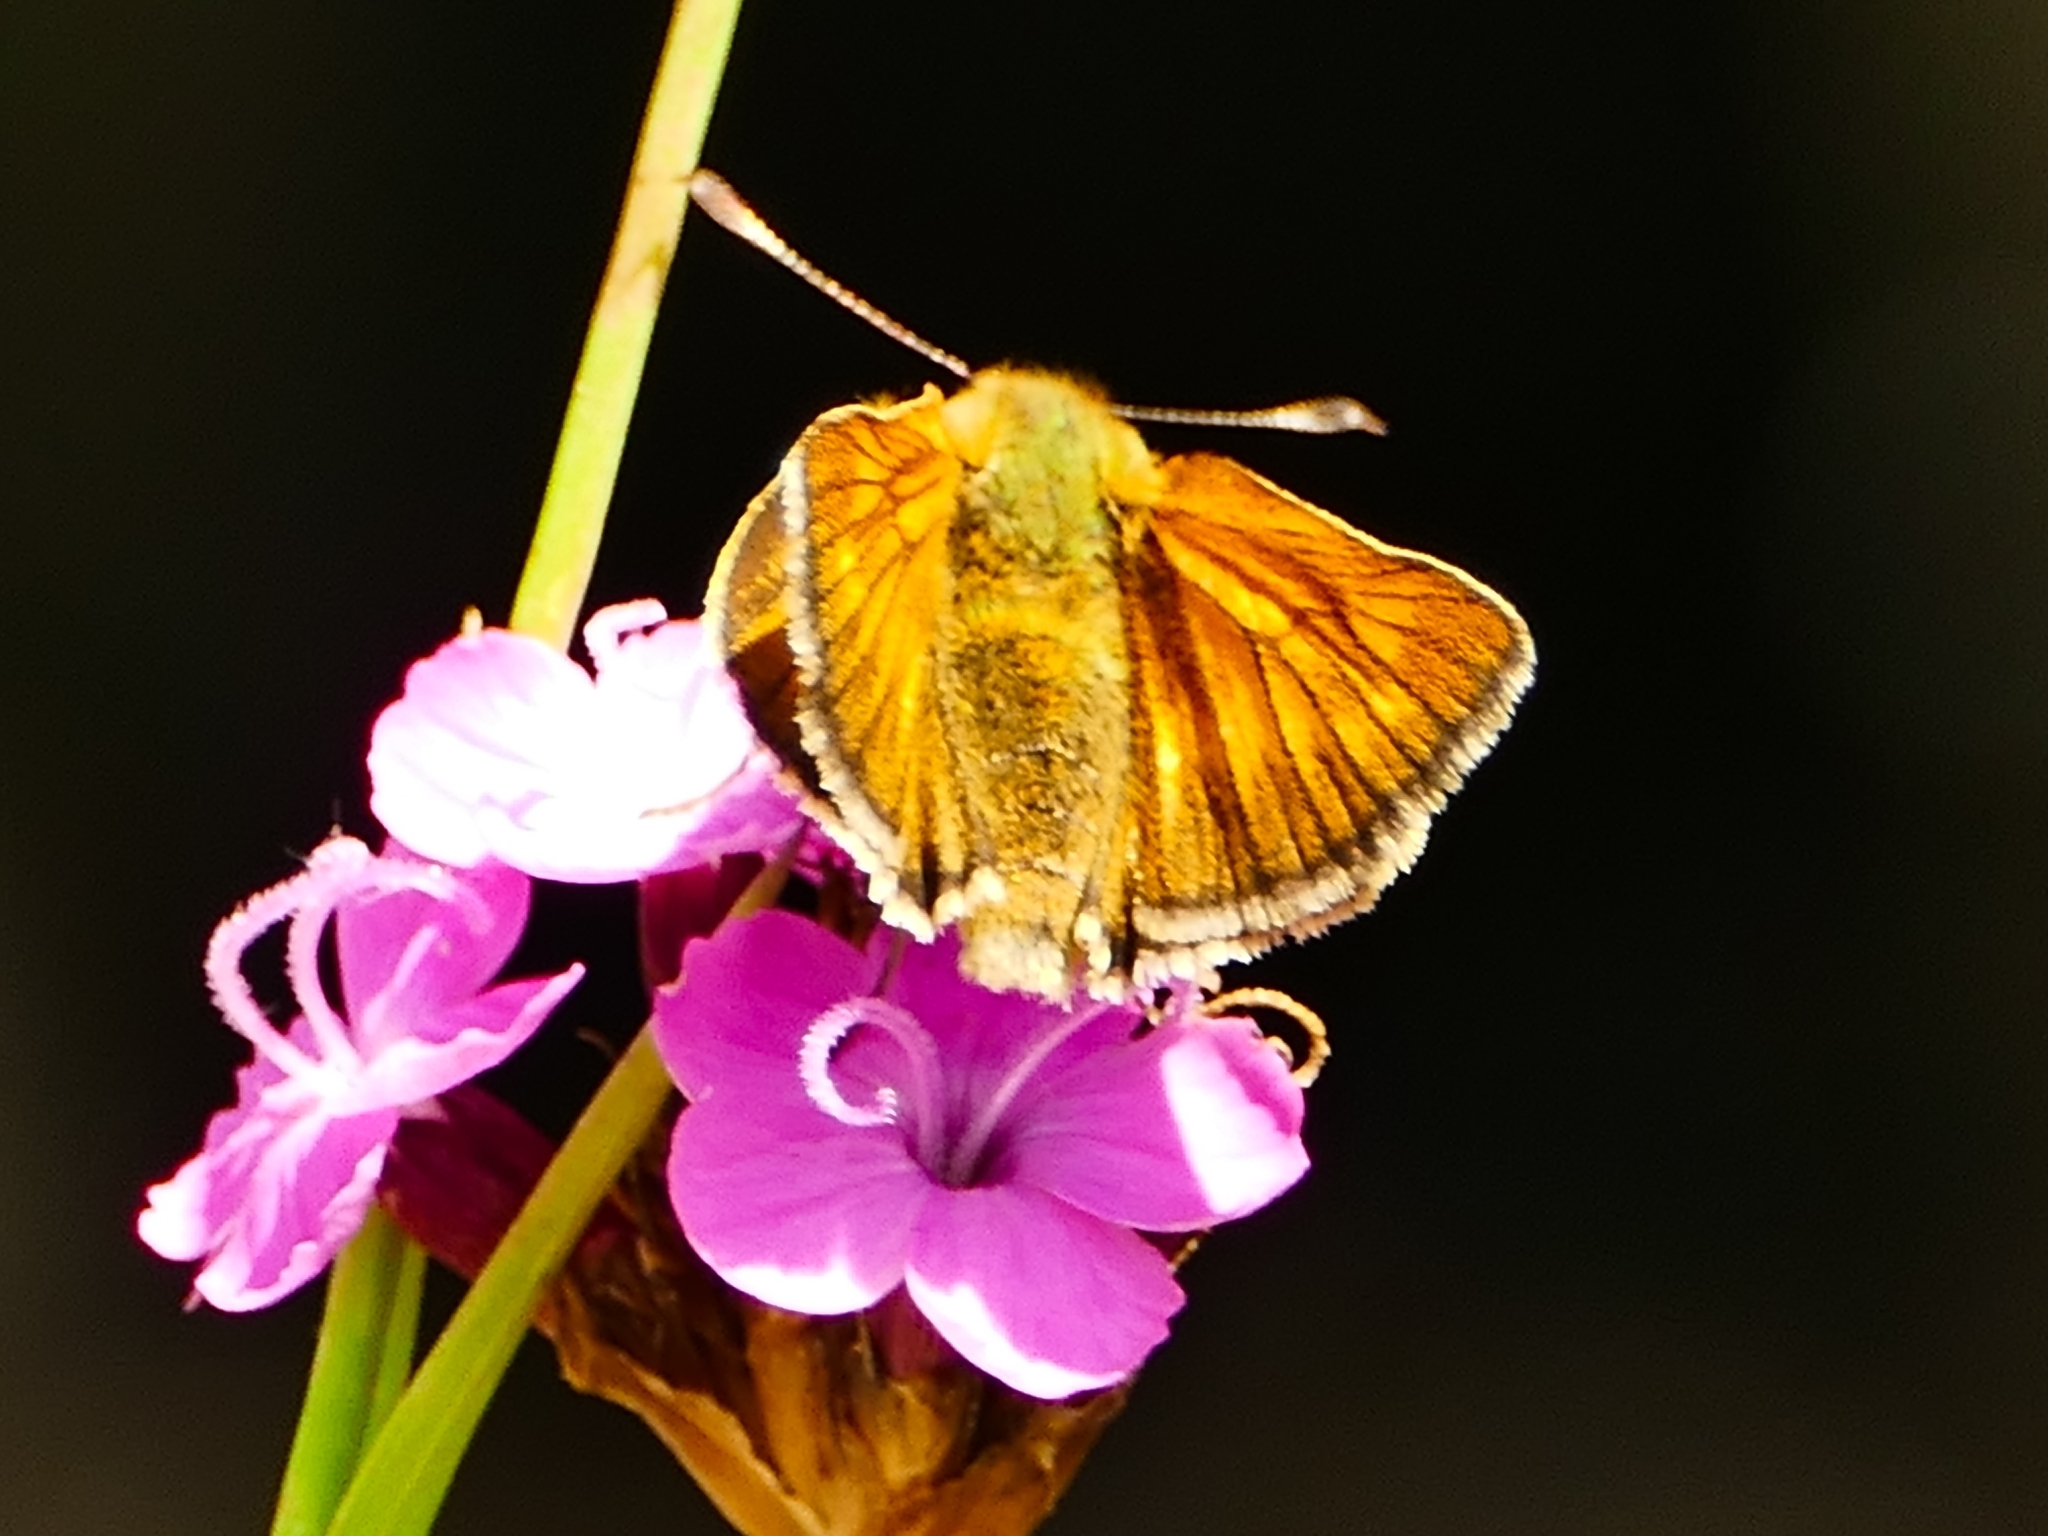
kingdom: Animalia
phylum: Arthropoda
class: Insecta
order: Lepidoptera
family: Hesperiidae
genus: Ochlodes
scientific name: Ochlodes venata
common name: Large skipper
